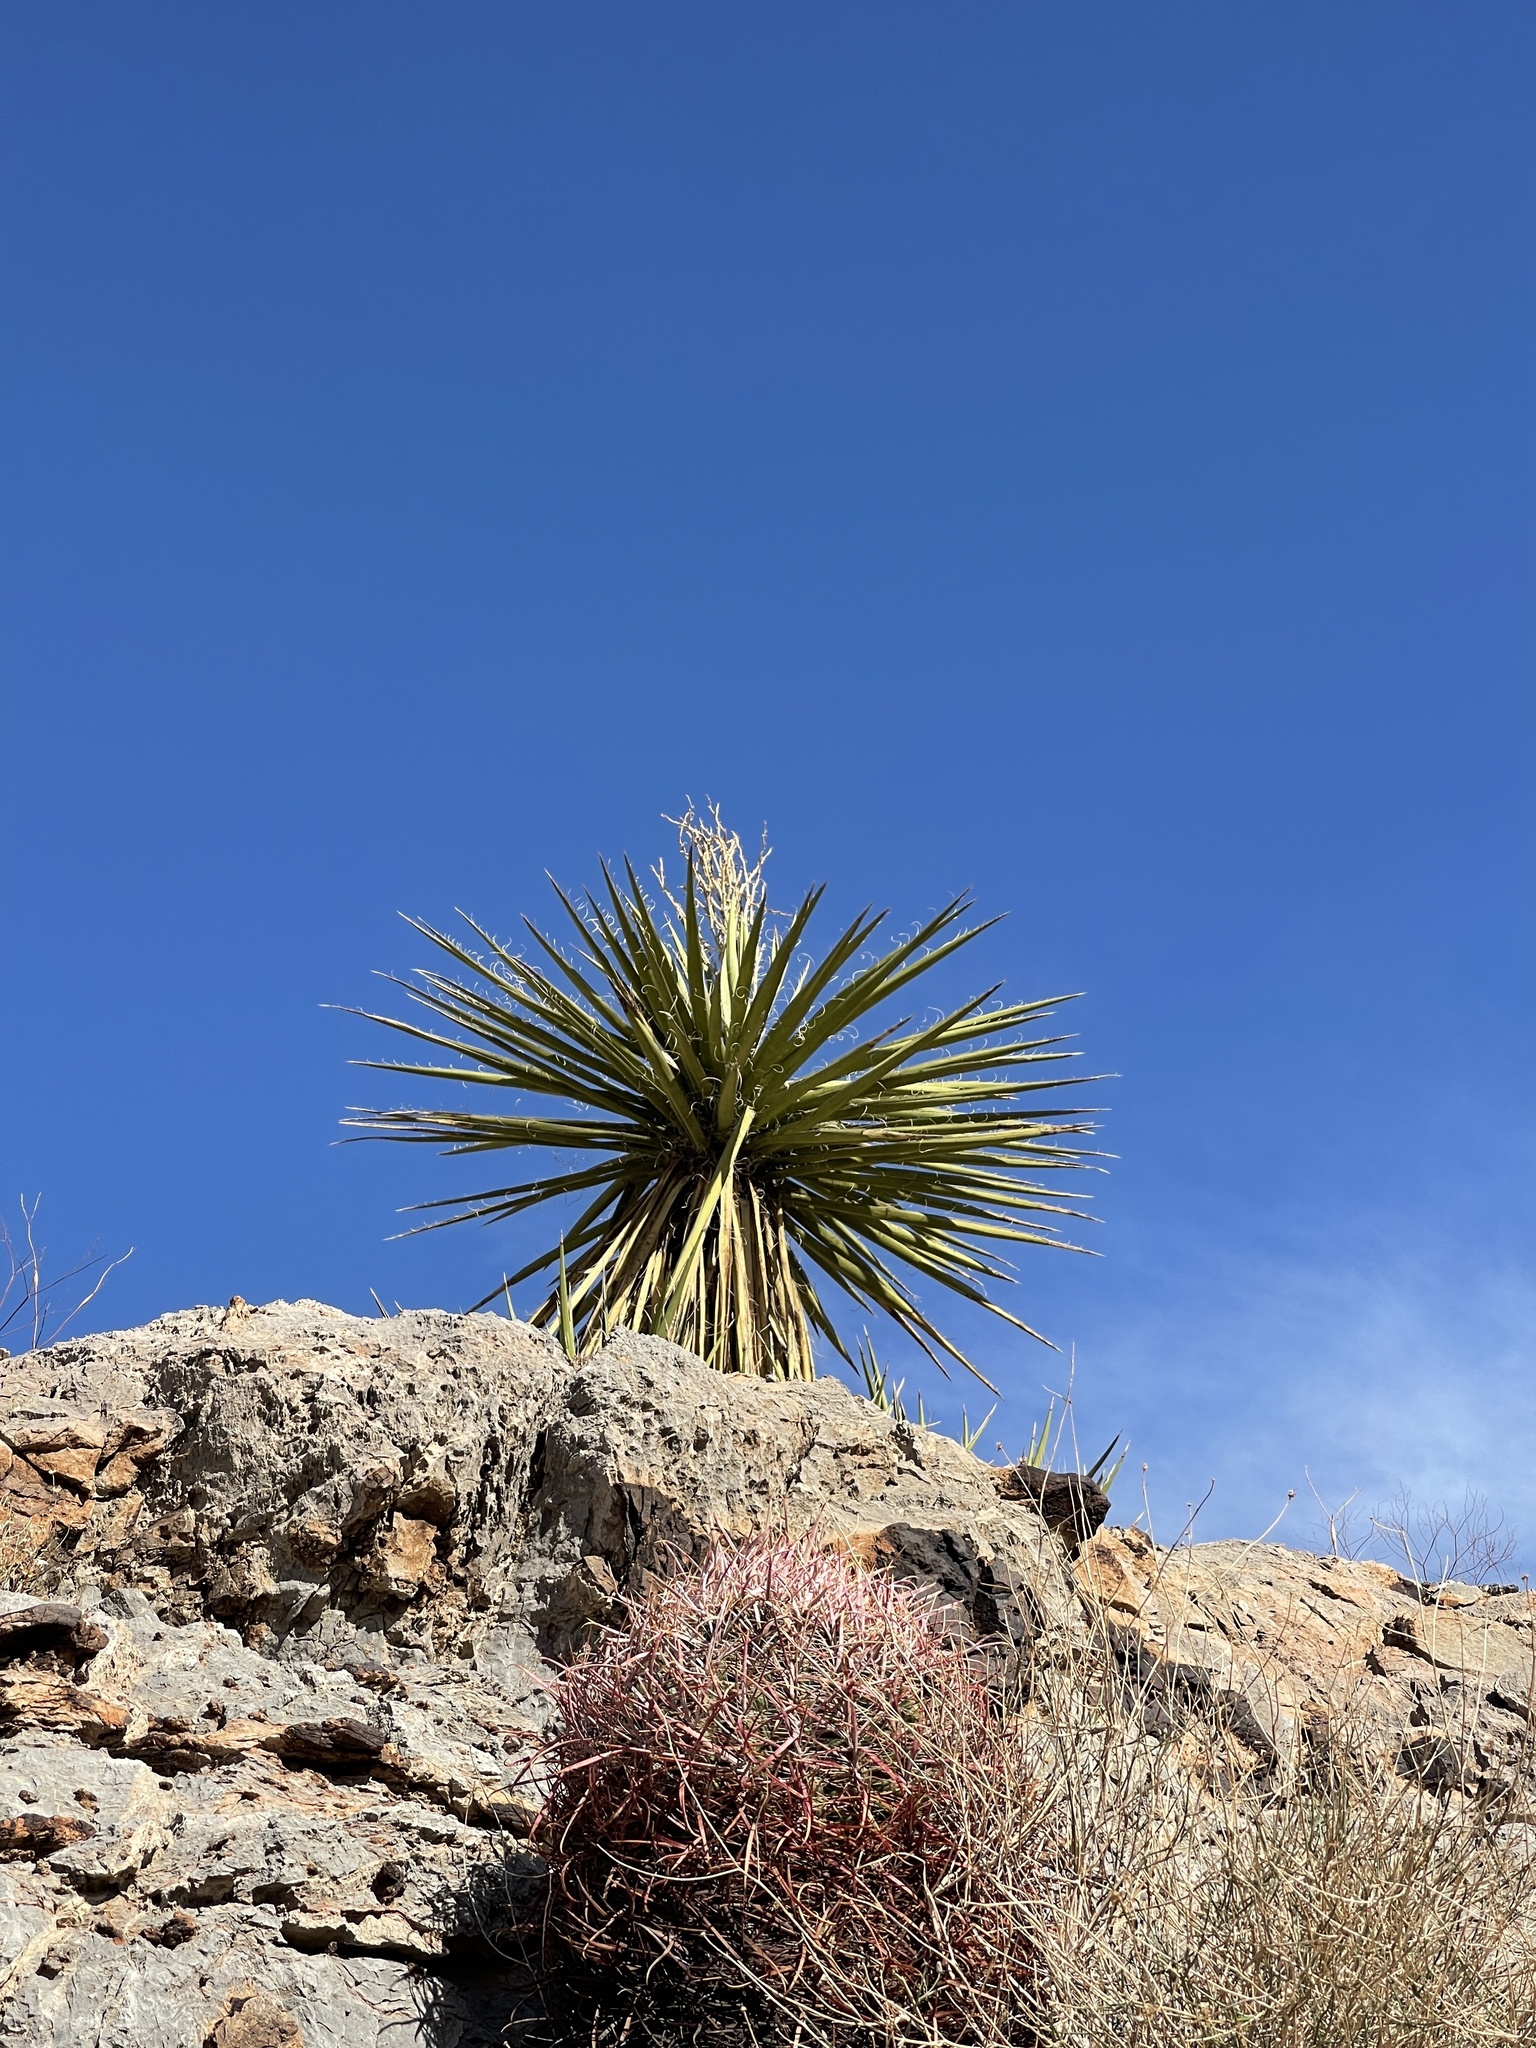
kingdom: Plantae
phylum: Tracheophyta
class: Liliopsida
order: Asparagales
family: Asparagaceae
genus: Yucca
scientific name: Yucca schidigera
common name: Mojave yucca
